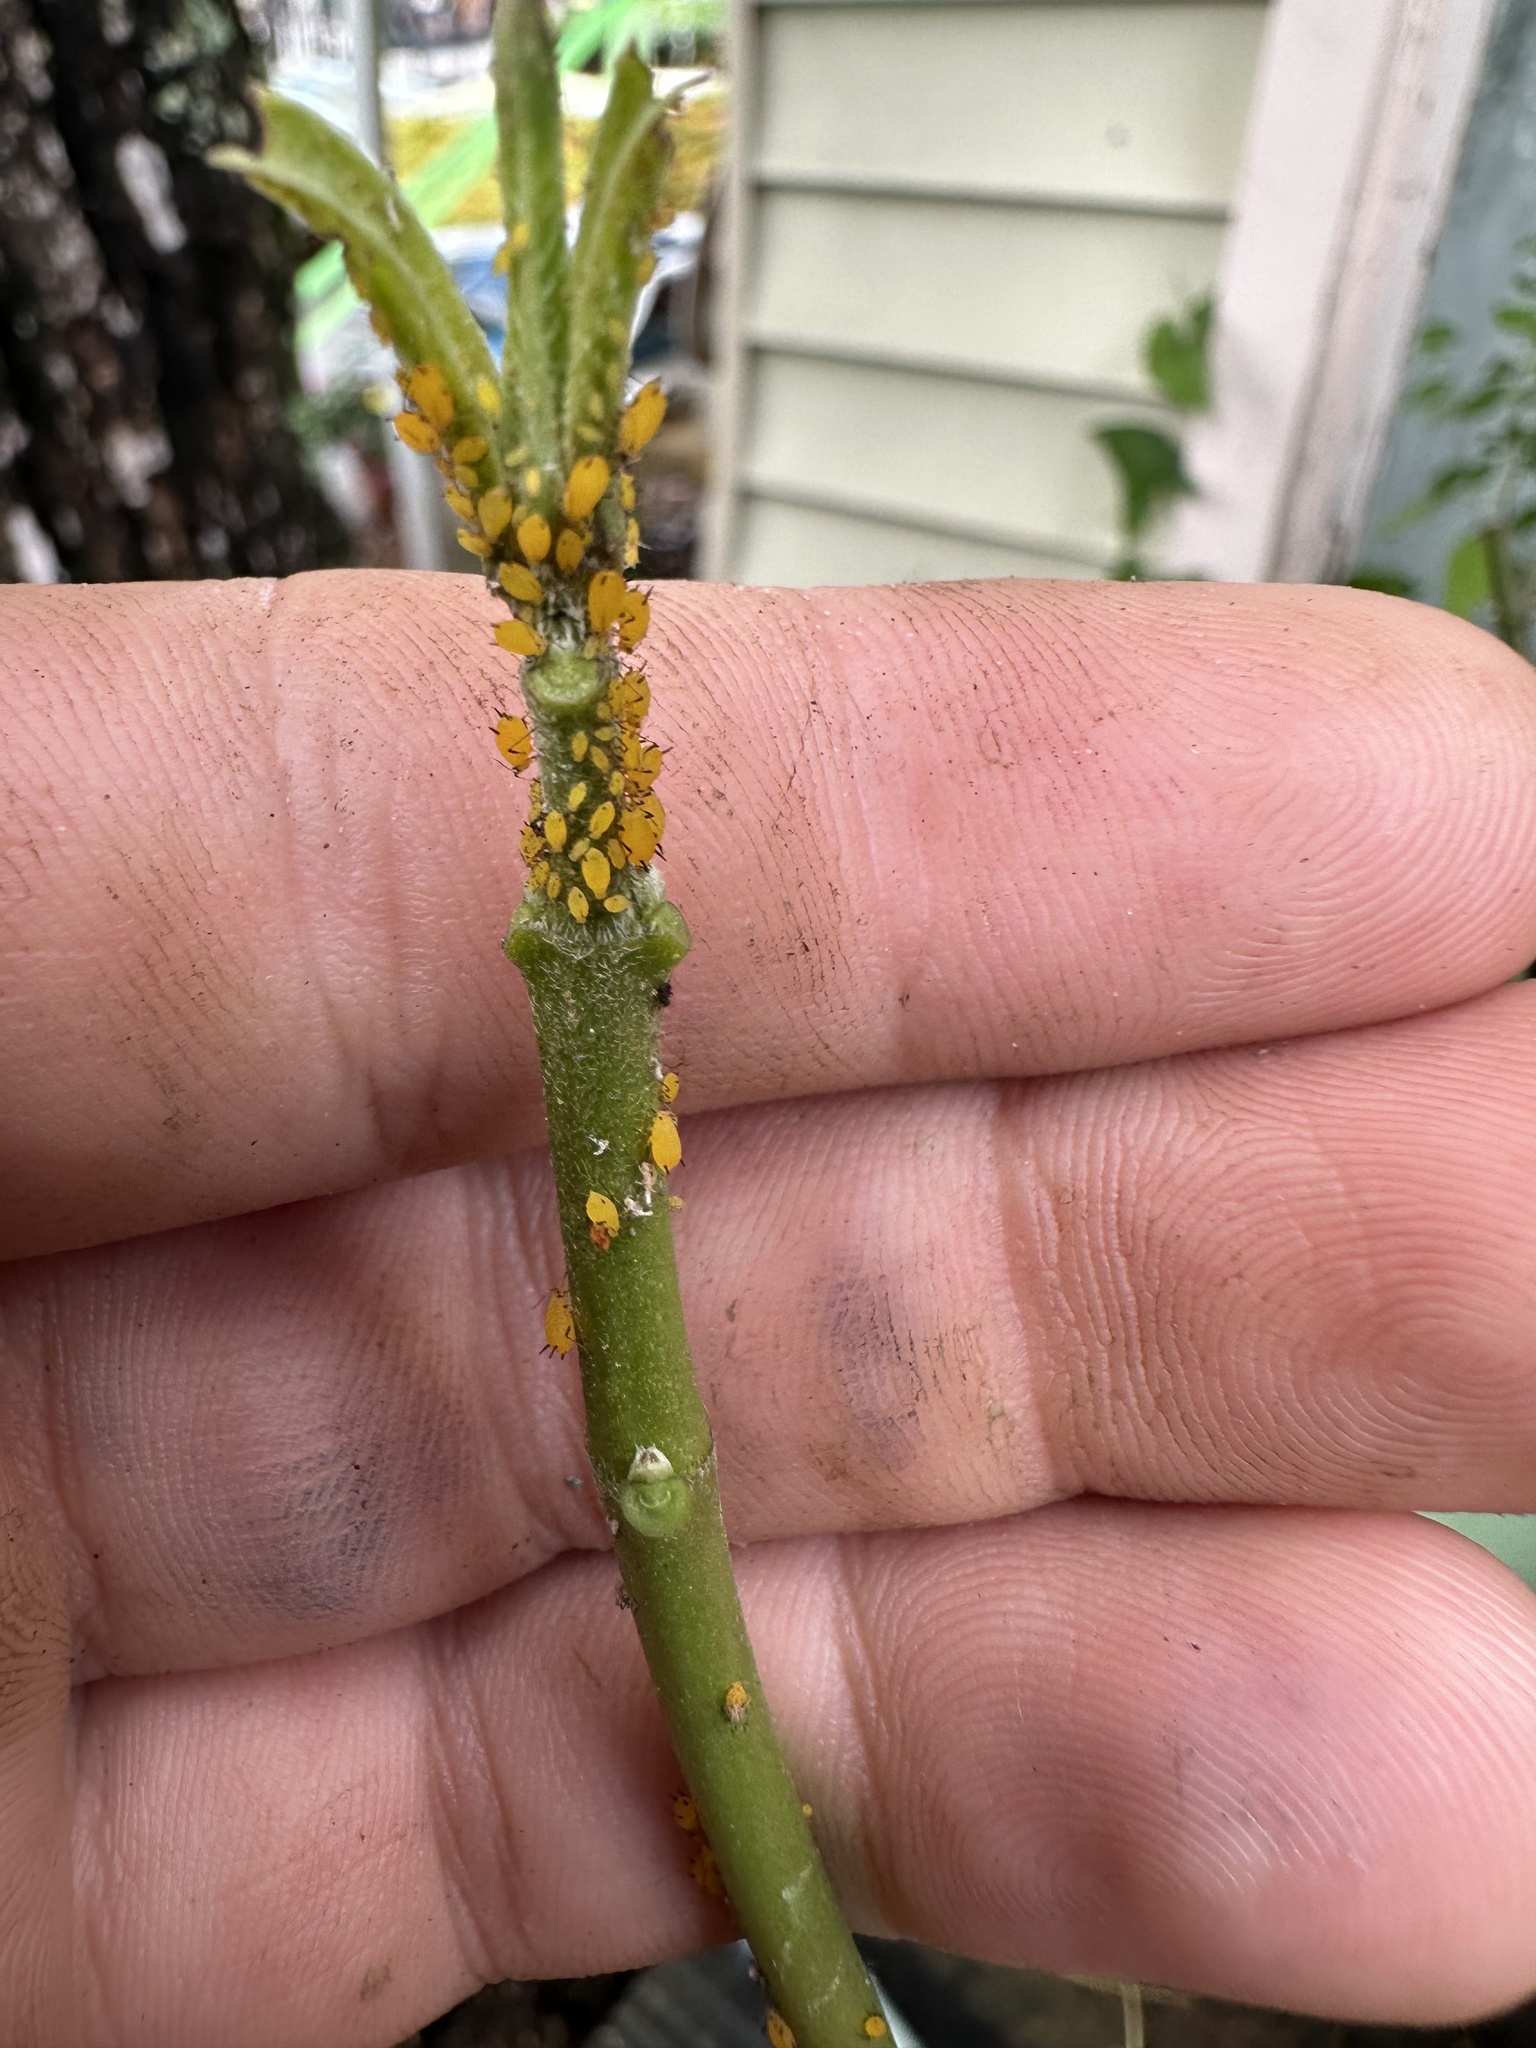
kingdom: Animalia
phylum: Arthropoda
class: Insecta
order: Hemiptera
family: Aphididae
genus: Aphis
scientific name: Aphis nerii
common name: Oleander aphid
